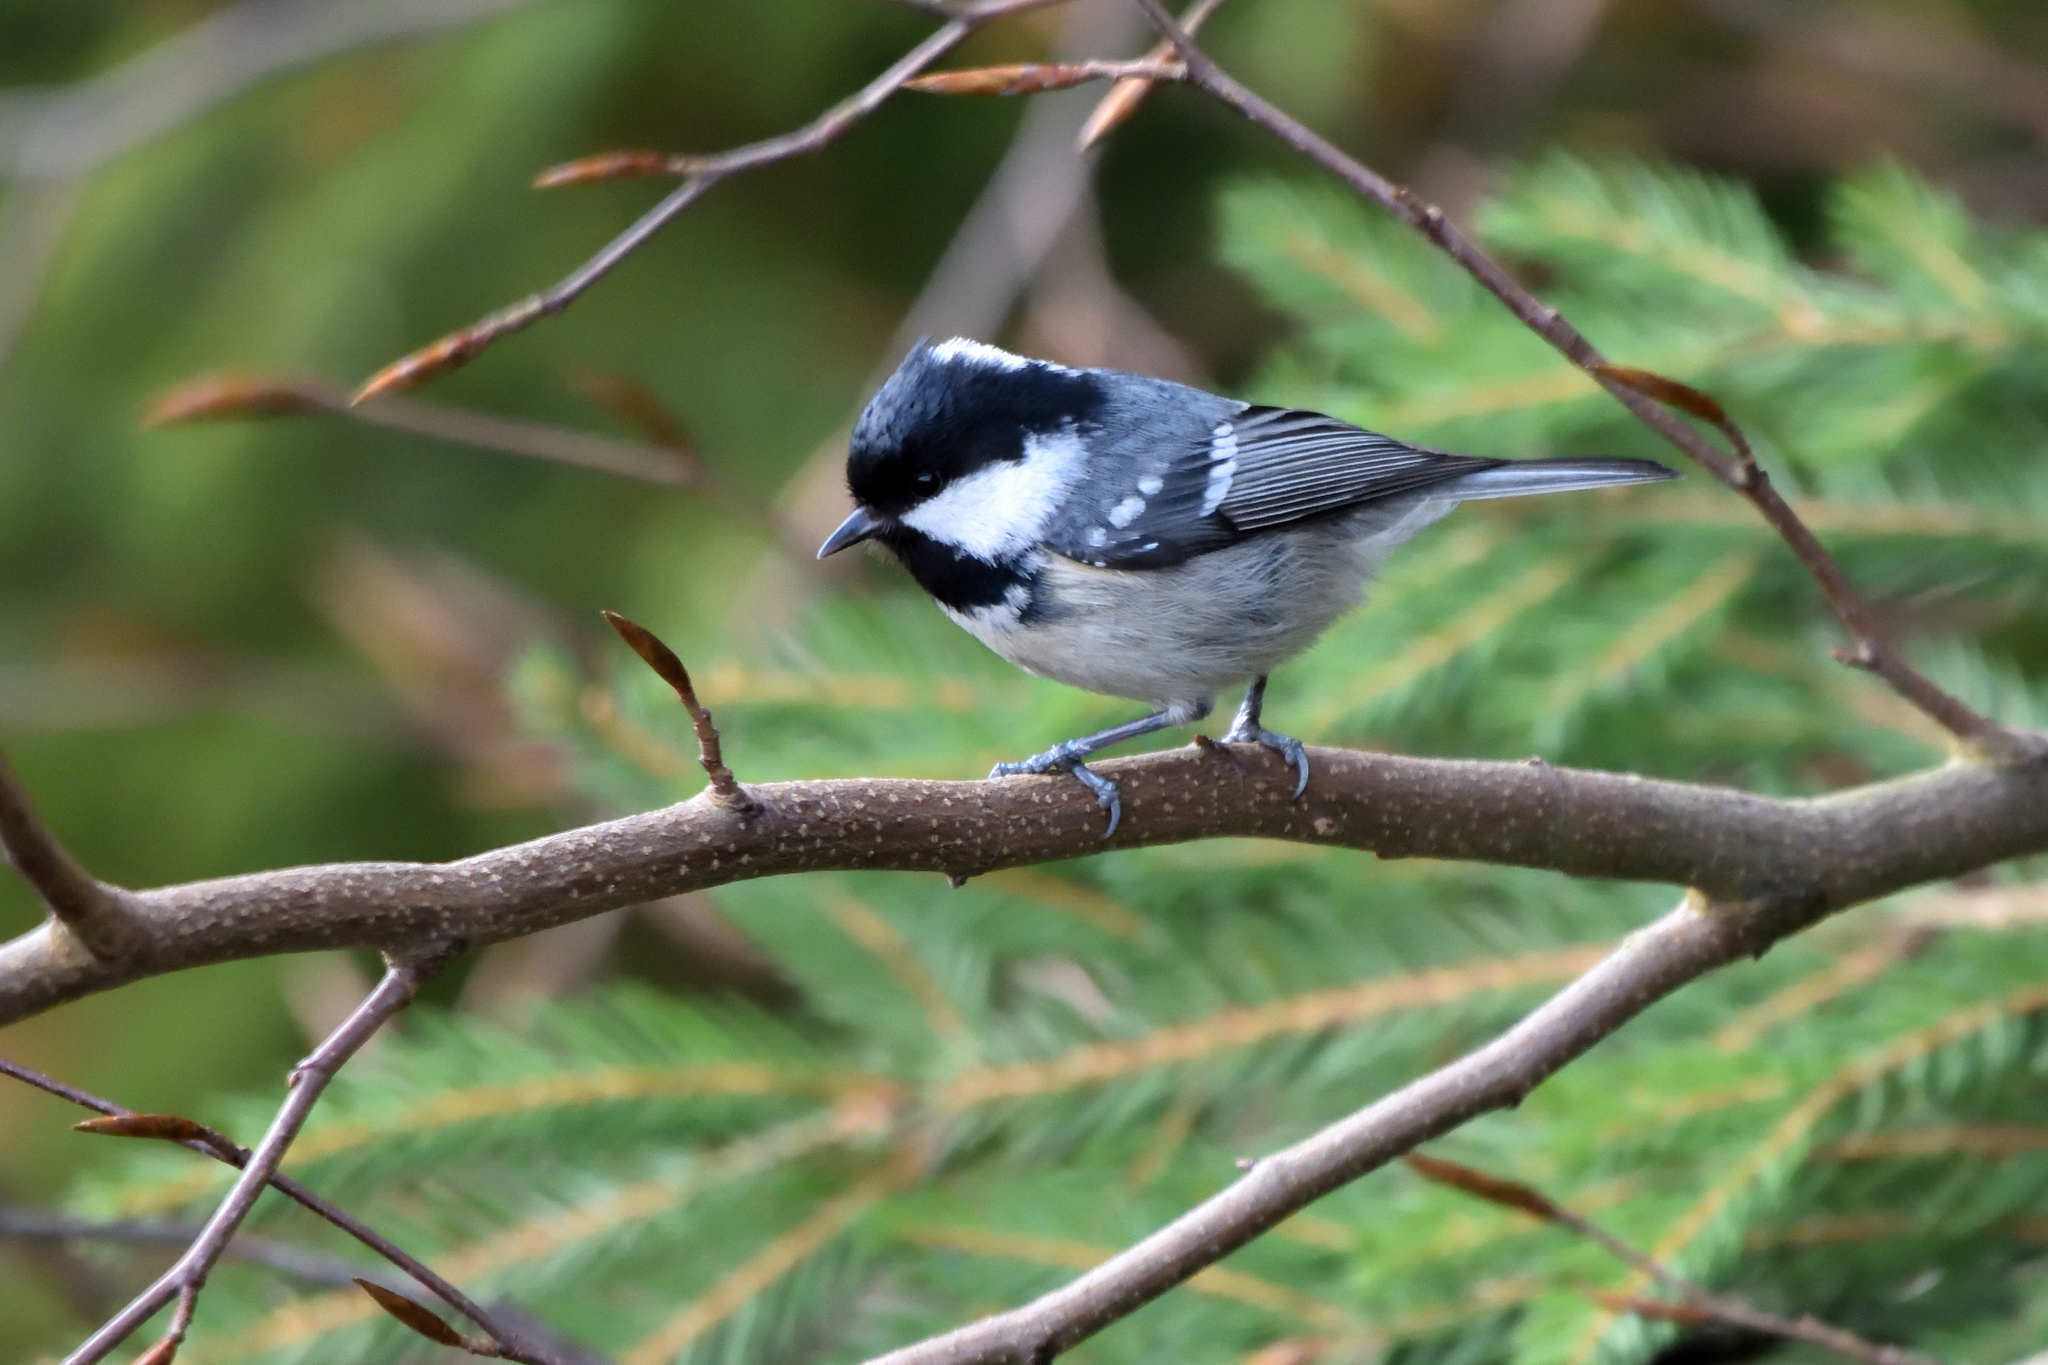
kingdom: Animalia
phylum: Chordata
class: Aves
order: Passeriformes
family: Paridae
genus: Periparus
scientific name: Periparus ater
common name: Coal tit
